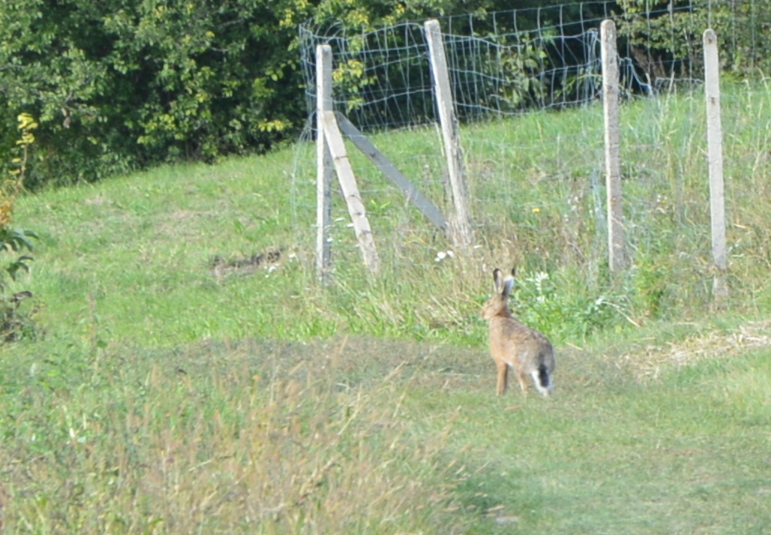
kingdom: Animalia
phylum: Chordata
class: Mammalia
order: Lagomorpha
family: Leporidae
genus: Lepus
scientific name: Lepus europaeus
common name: European hare
